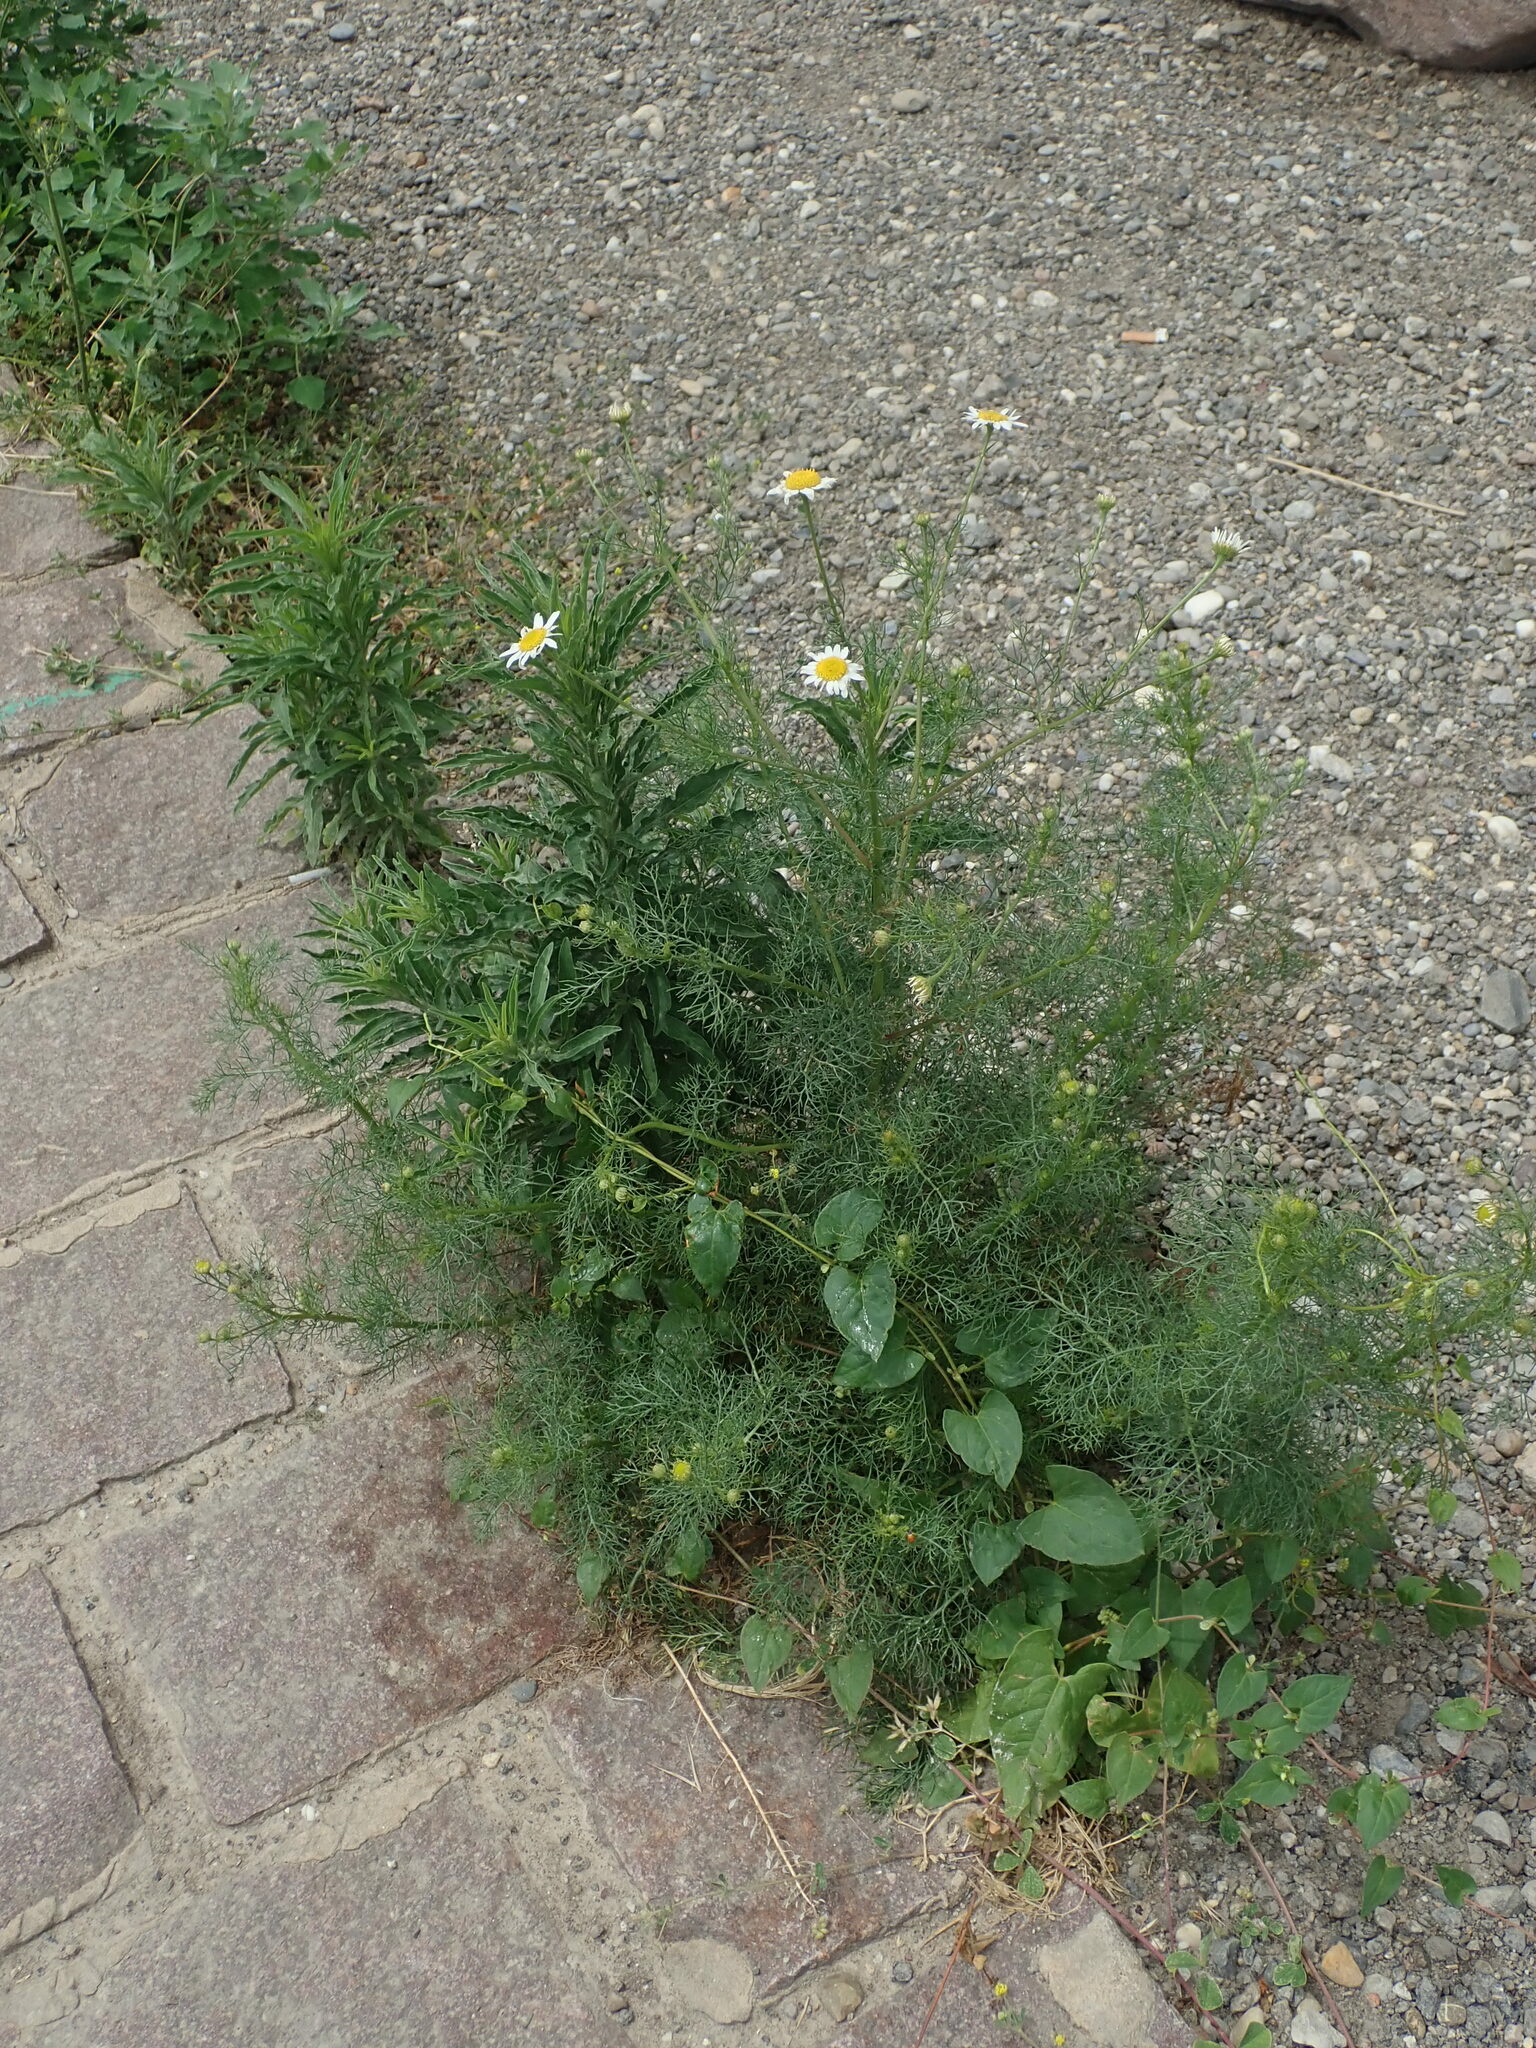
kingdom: Plantae
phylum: Tracheophyta
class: Magnoliopsida
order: Asterales
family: Asteraceae
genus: Tripleurospermum
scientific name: Tripleurospermum inodorum
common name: Scentless mayweed
